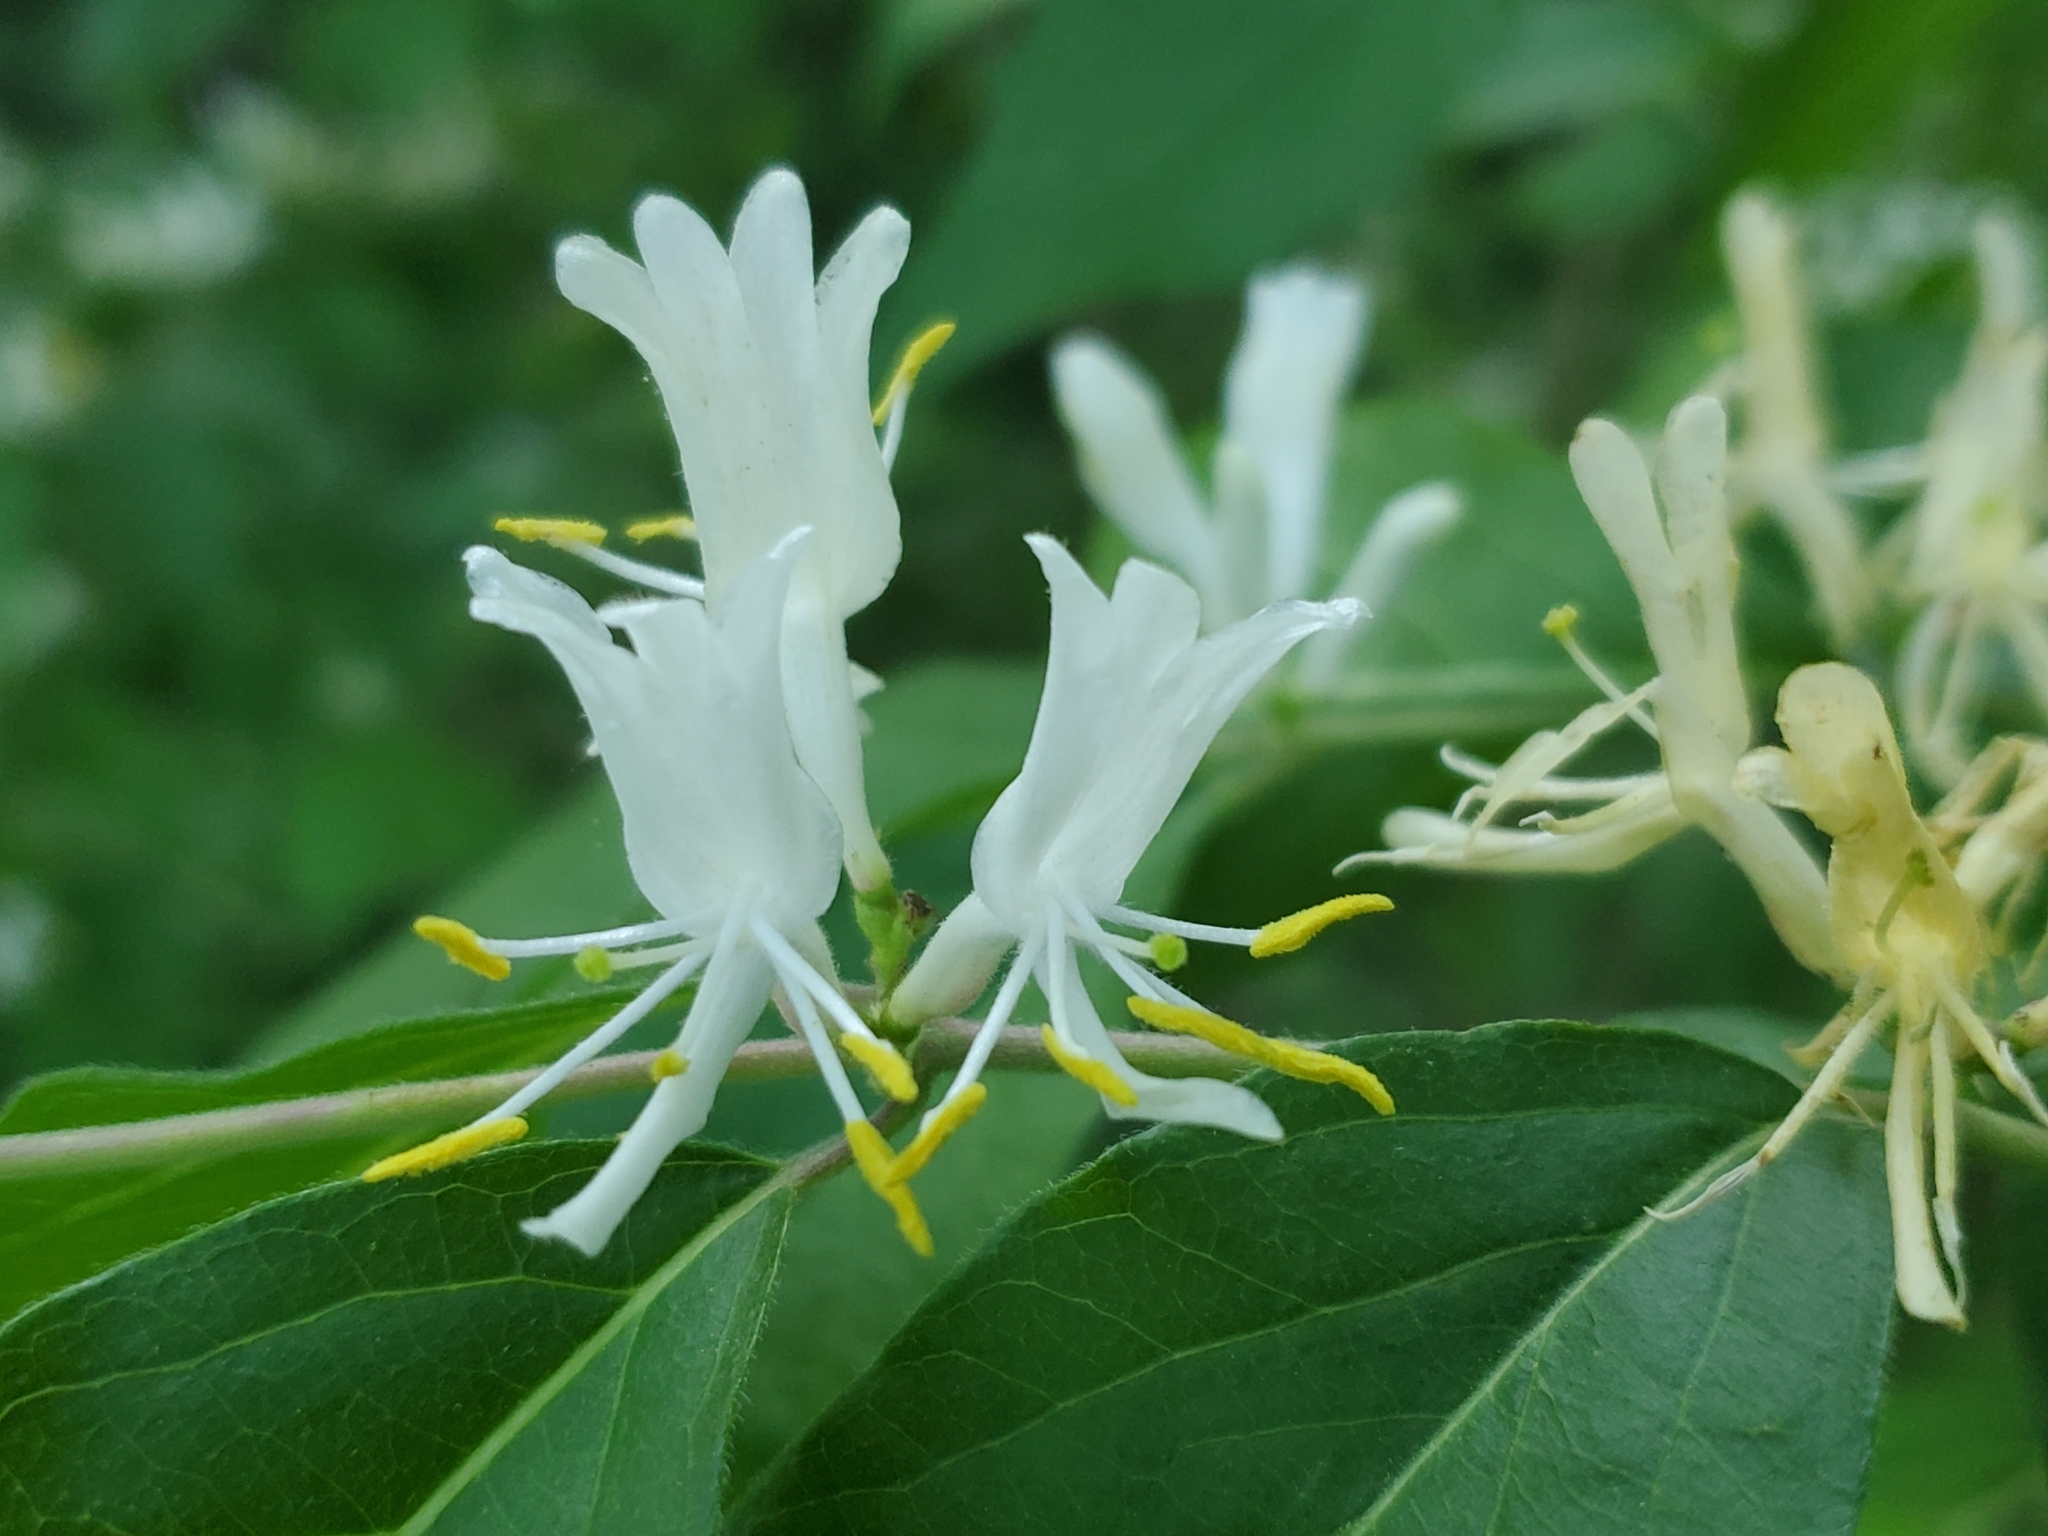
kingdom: Plantae
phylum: Tracheophyta
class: Magnoliopsida
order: Dipsacales
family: Caprifoliaceae
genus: Lonicera
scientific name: Lonicera maackii
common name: Amur honeysuckle
